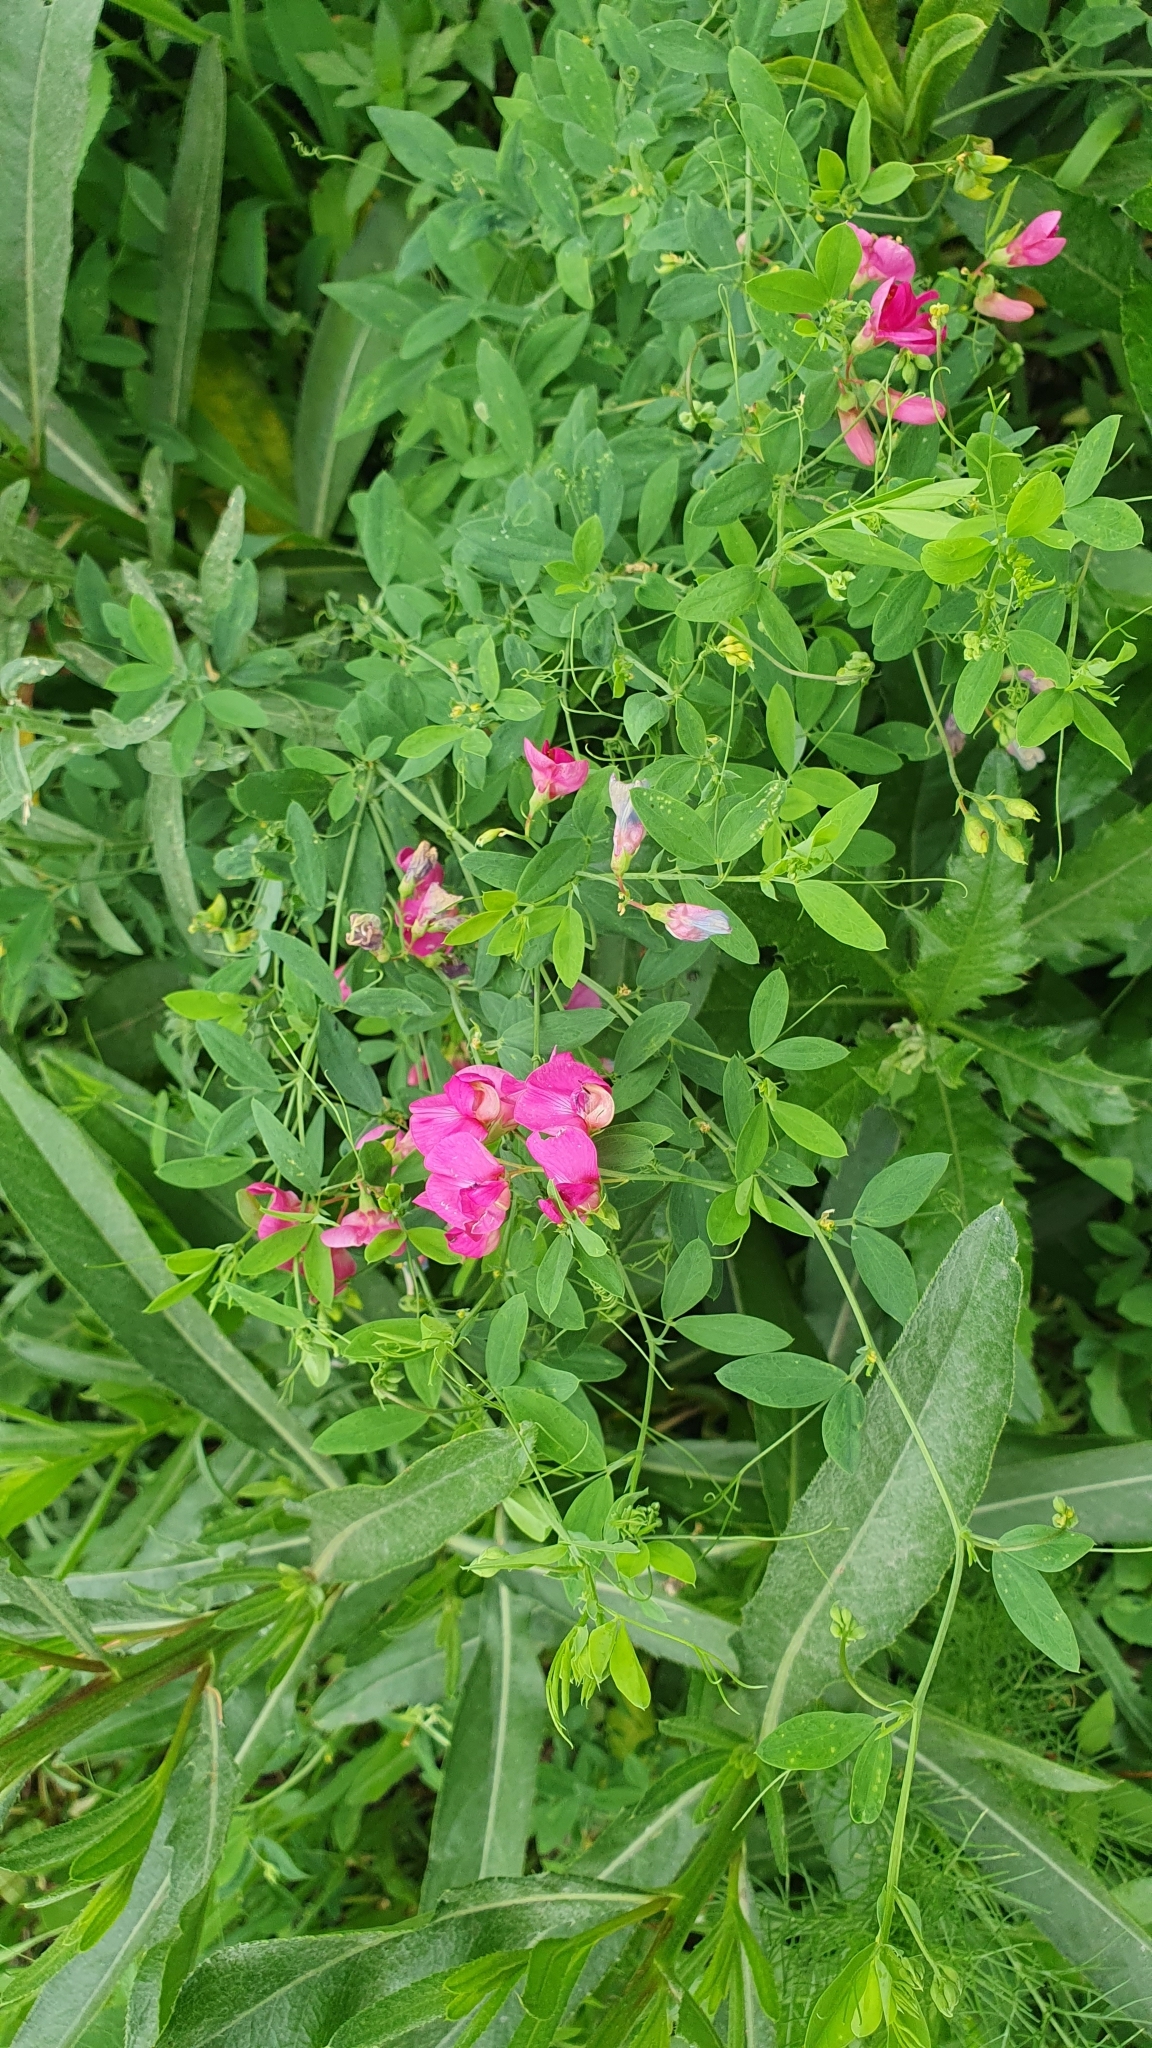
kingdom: Plantae
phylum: Tracheophyta
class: Magnoliopsida
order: Fabales
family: Fabaceae
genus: Lathyrus
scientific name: Lathyrus tuberosus
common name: Tuberous pea
